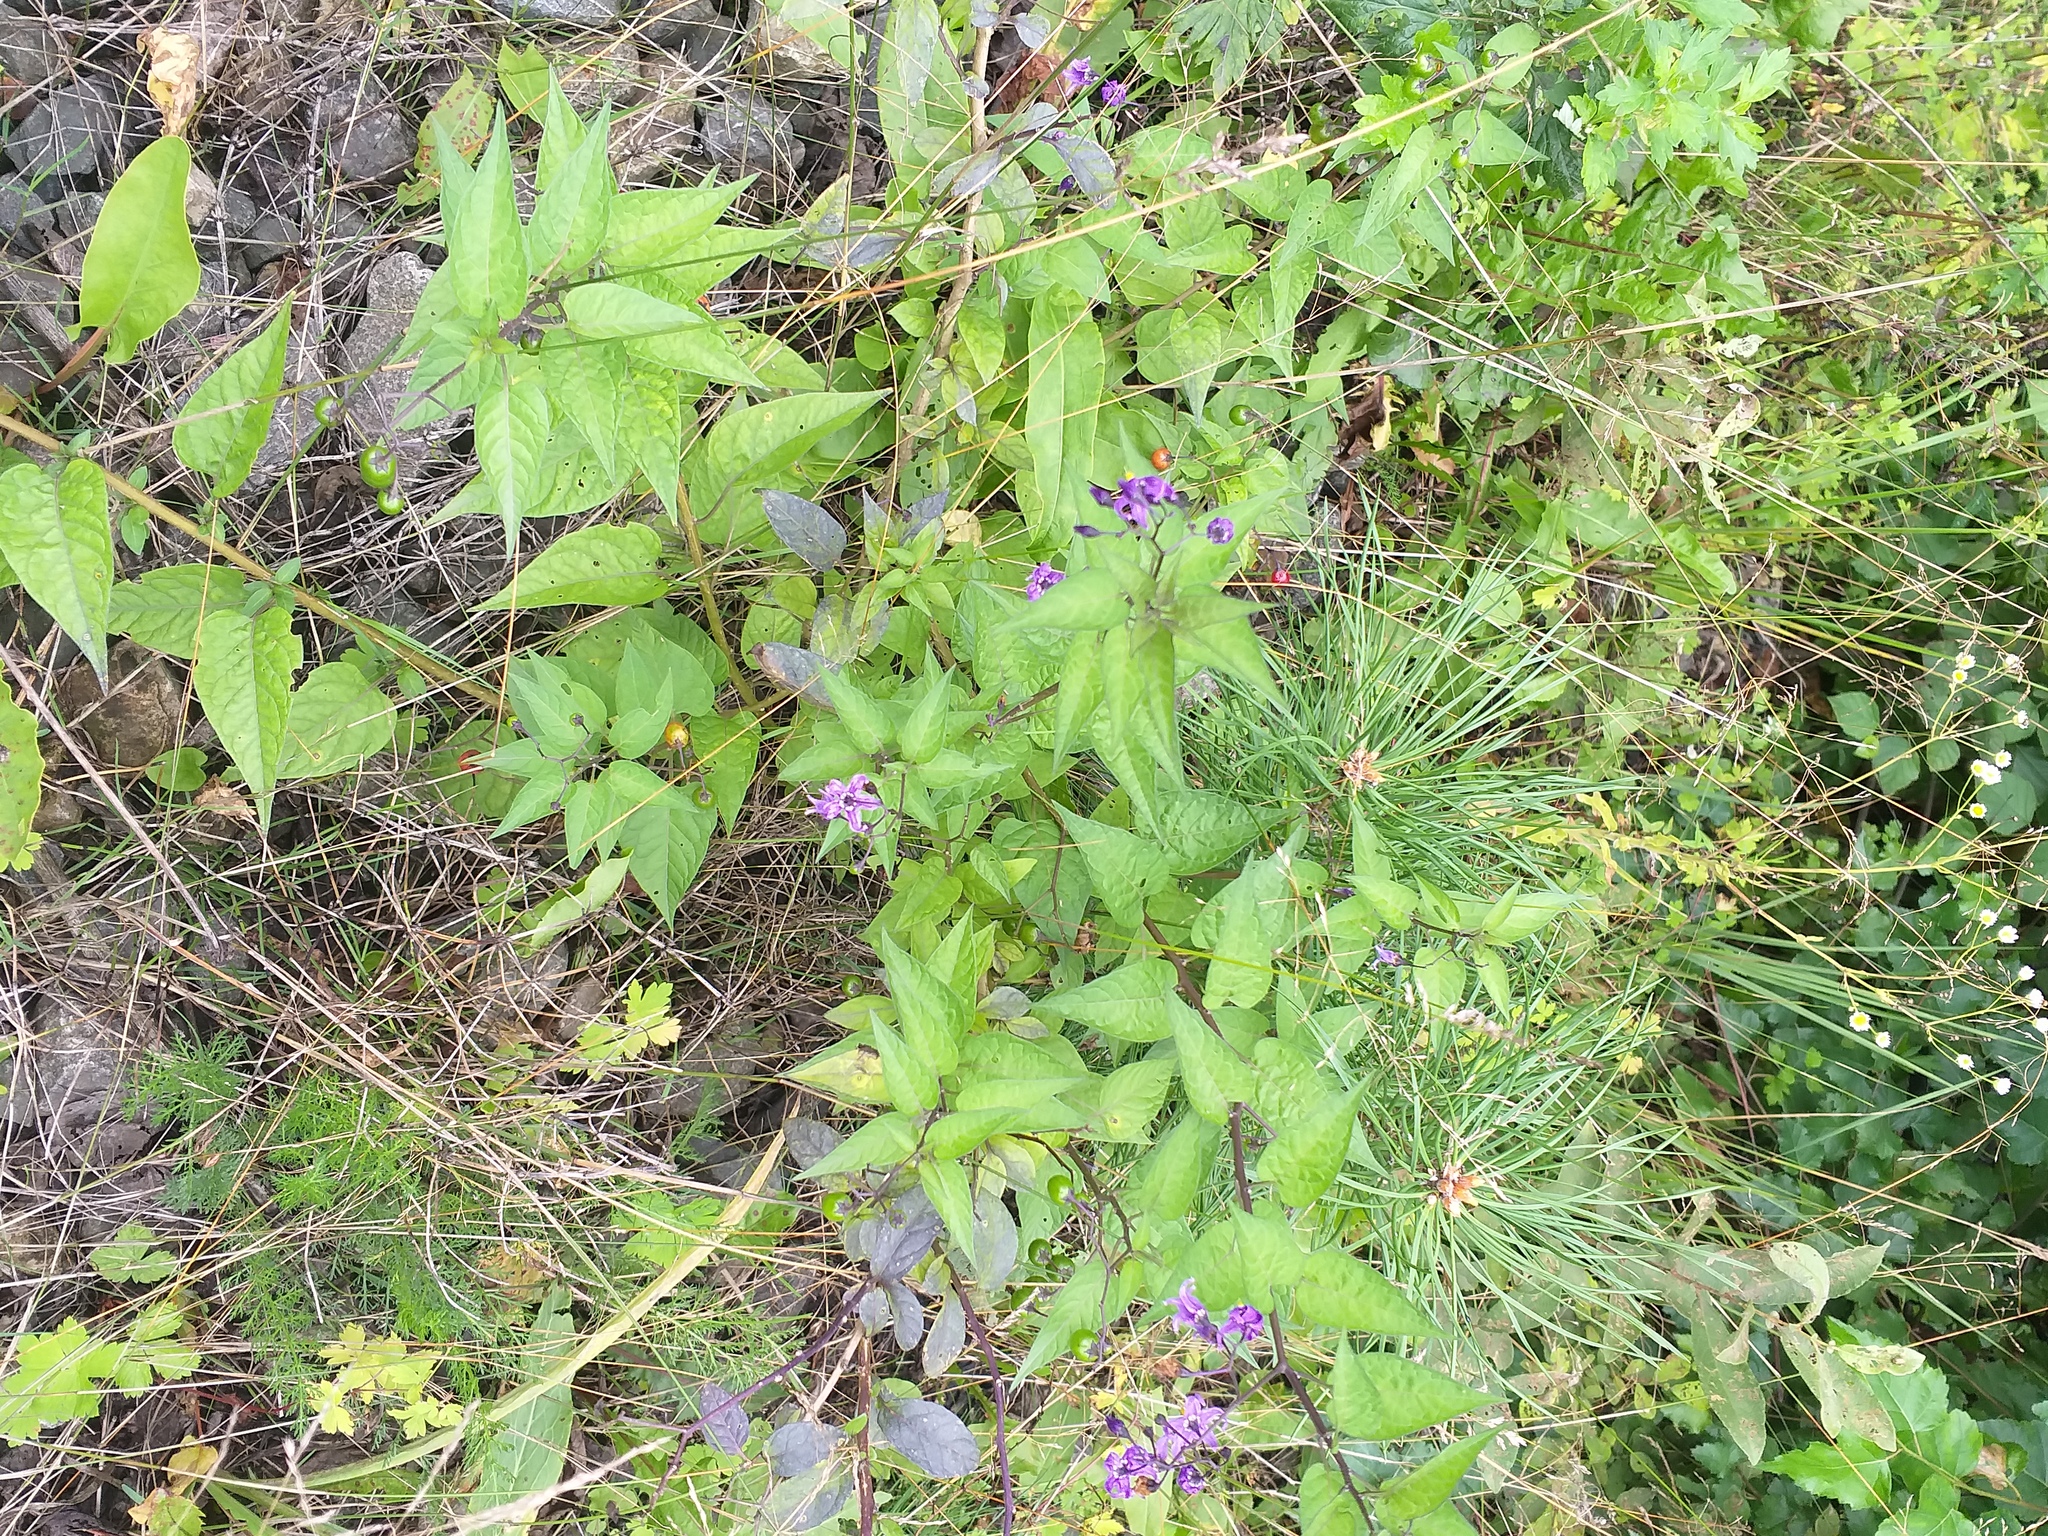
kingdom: Plantae
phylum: Tracheophyta
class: Magnoliopsida
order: Solanales
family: Solanaceae
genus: Solanum
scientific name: Solanum dulcamara
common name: Climbing nightshade
